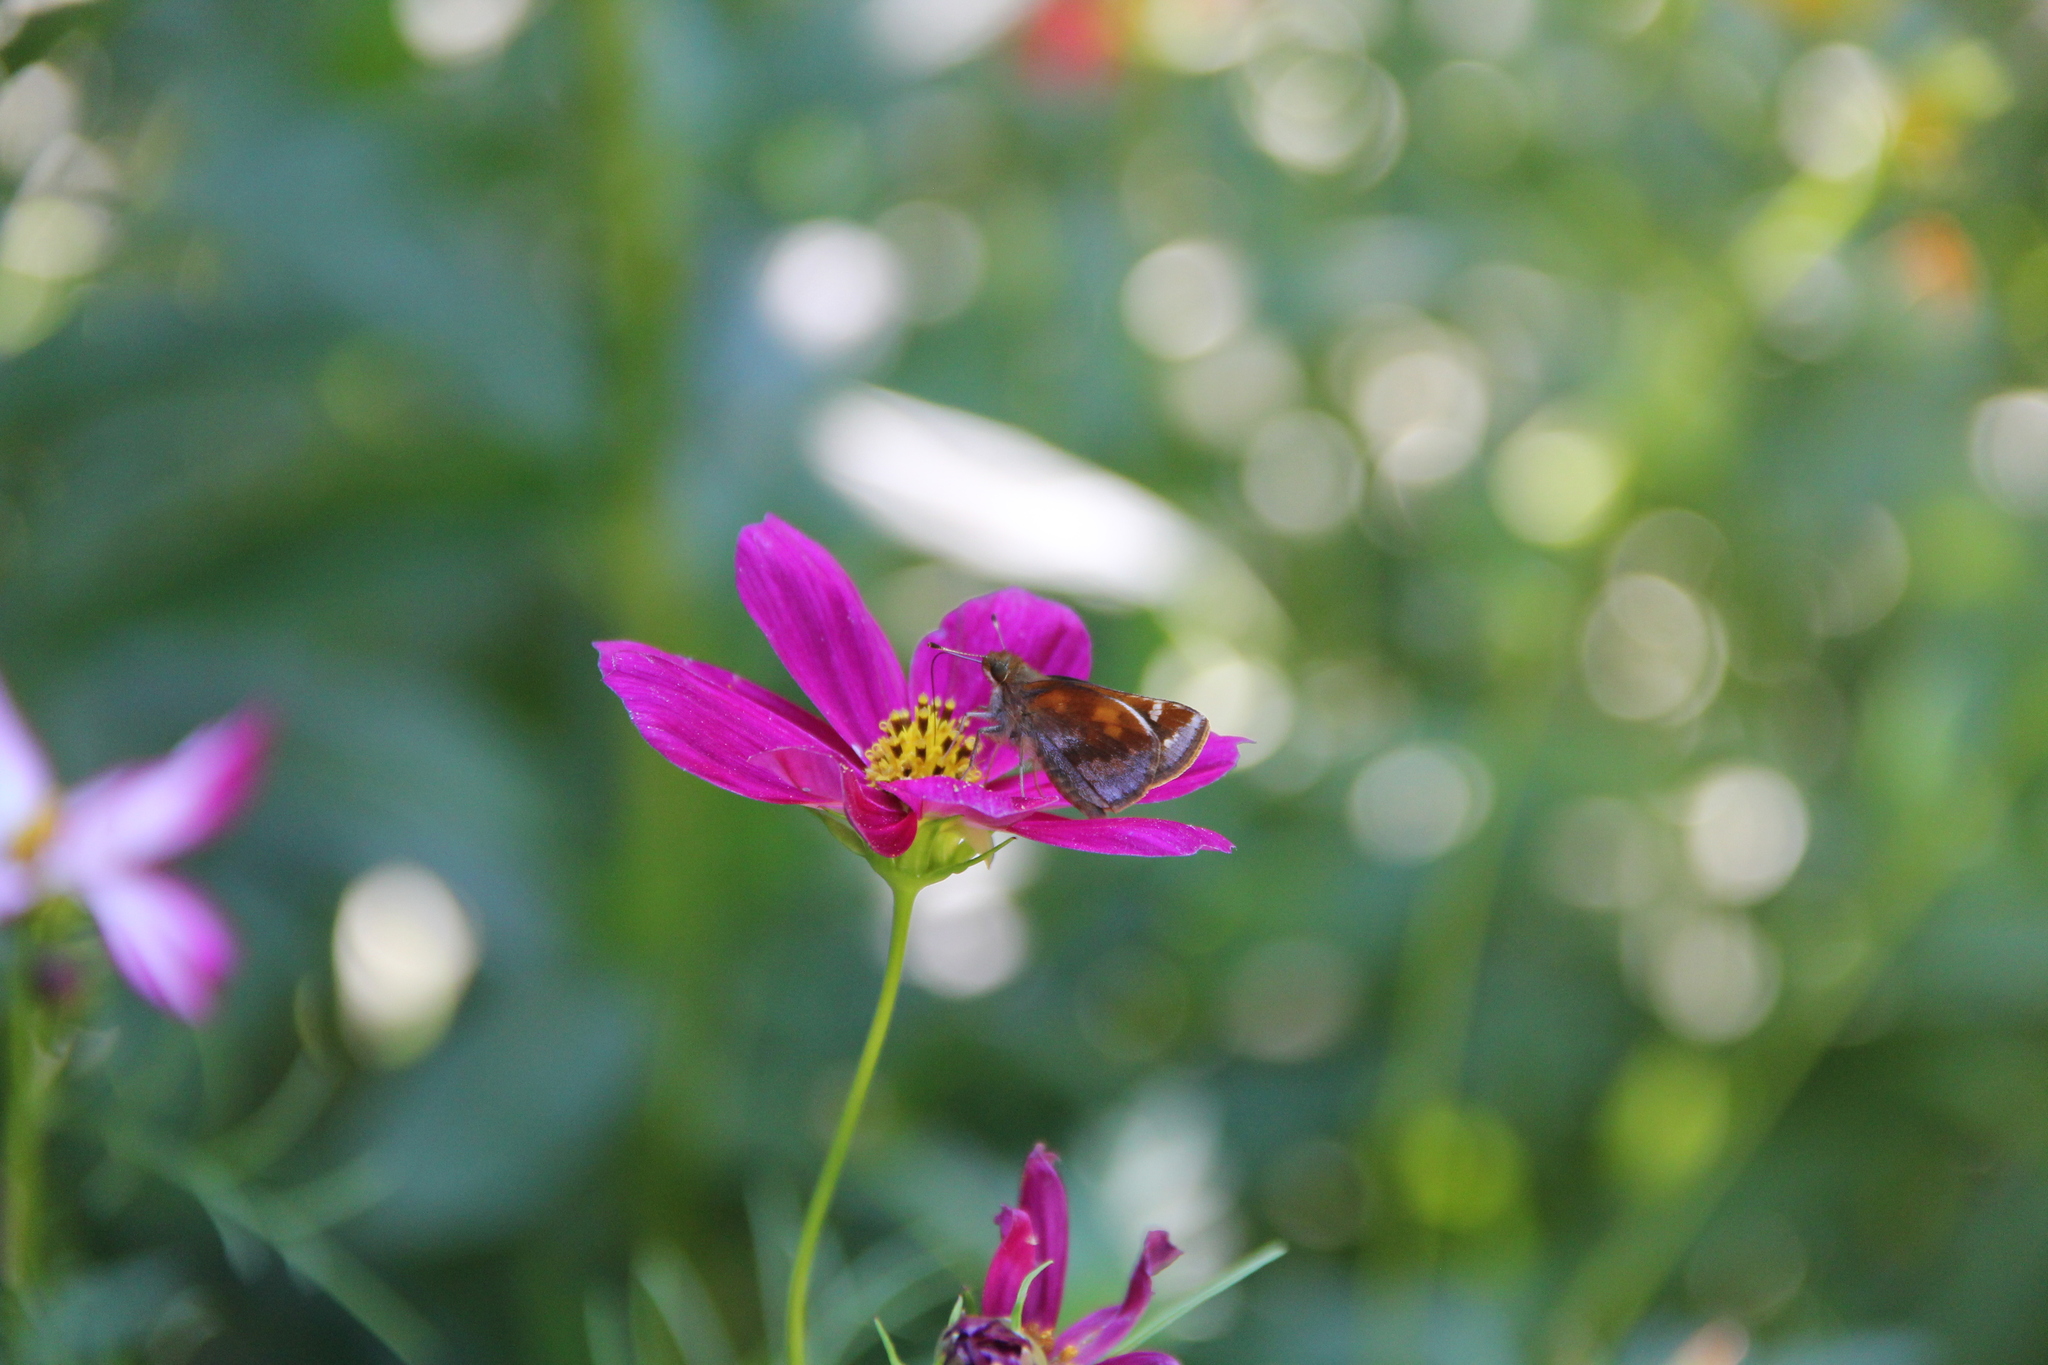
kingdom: Animalia
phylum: Arthropoda
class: Insecta
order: Lepidoptera
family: Hesperiidae
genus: Lon
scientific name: Lon zabulon
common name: Zabulon skipper
